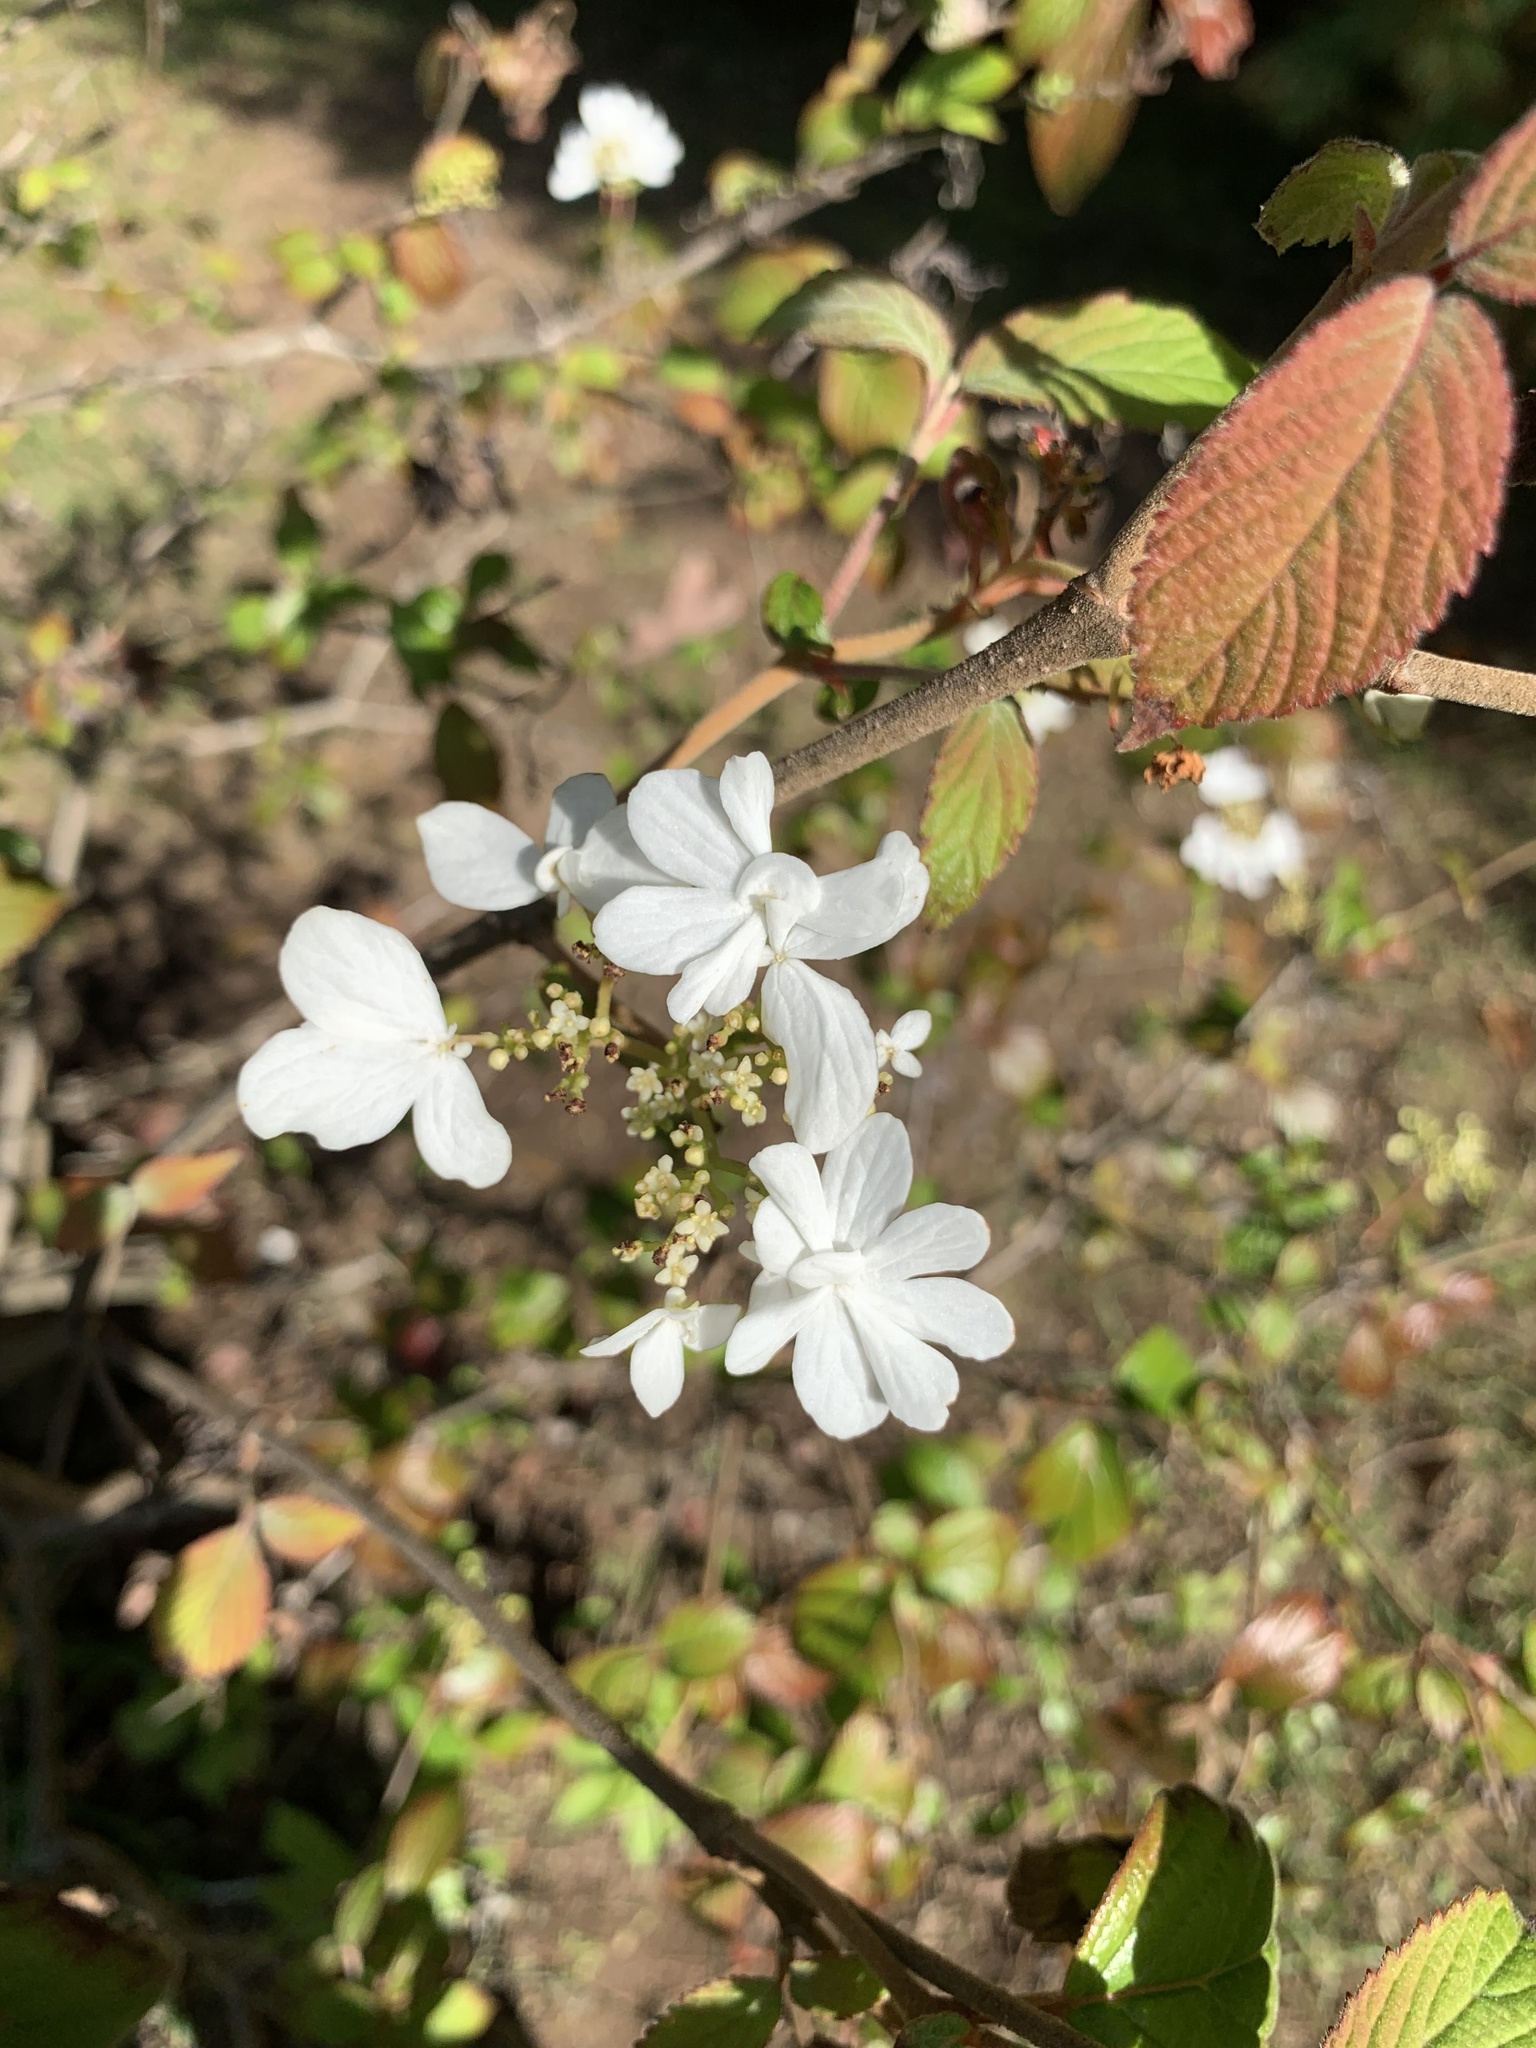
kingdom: Plantae
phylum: Tracheophyta
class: Magnoliopsida
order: Dipsacales
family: Viburnaceae
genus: Viburnum
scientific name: Viburnum plicatum
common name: Japanese snowball
